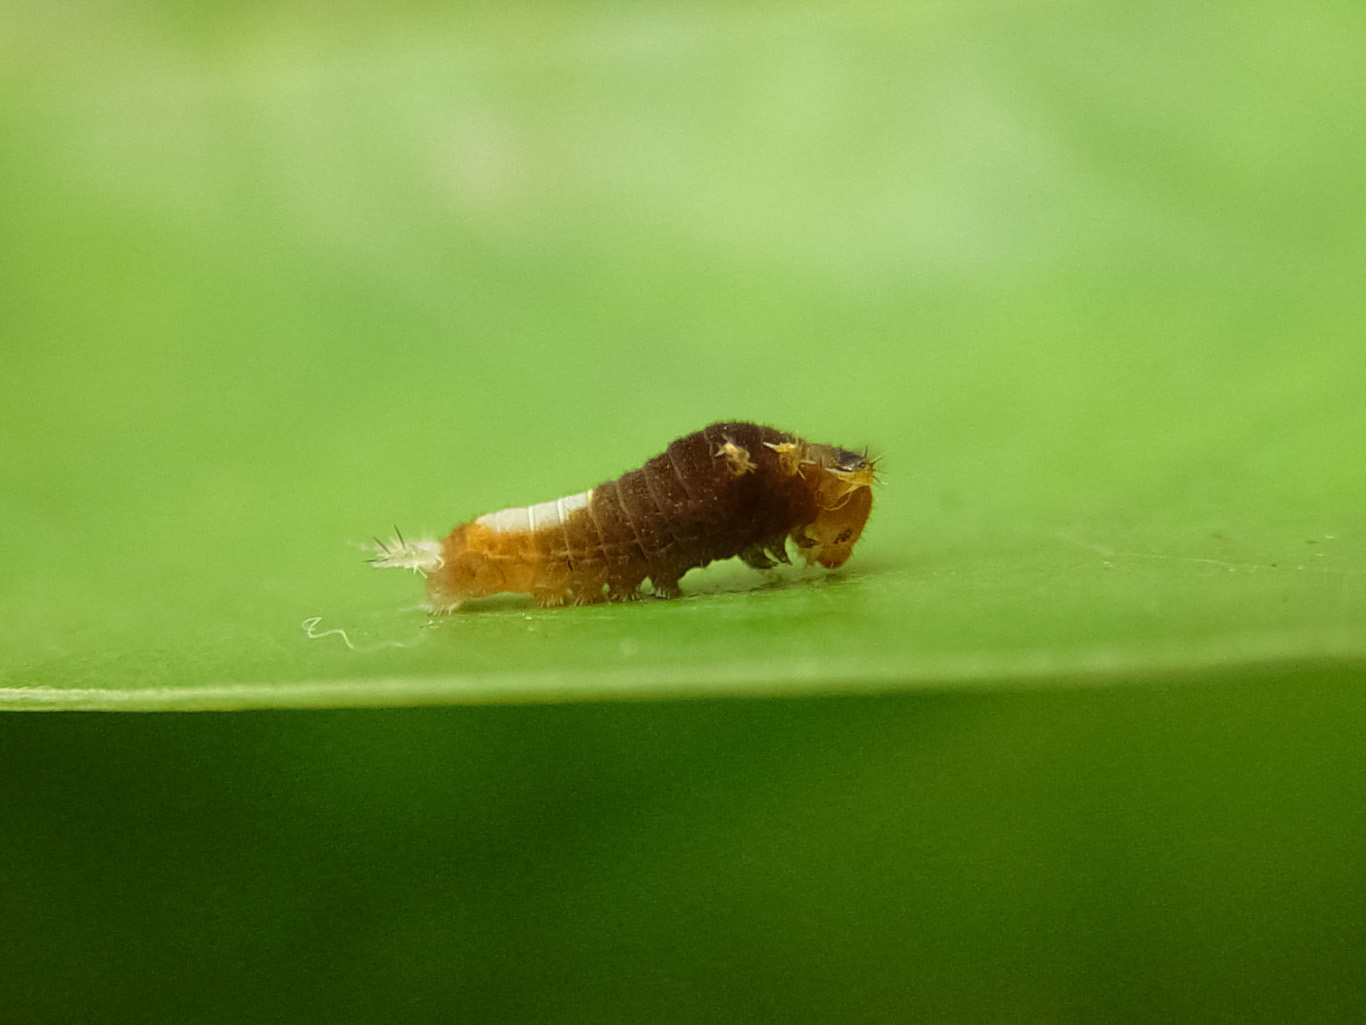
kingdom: Animalia
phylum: Arthropoda
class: Insecta
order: Lepidoptera
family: Papilionidae
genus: Graphium
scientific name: Graphium agamemnon
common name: Tailed jay
